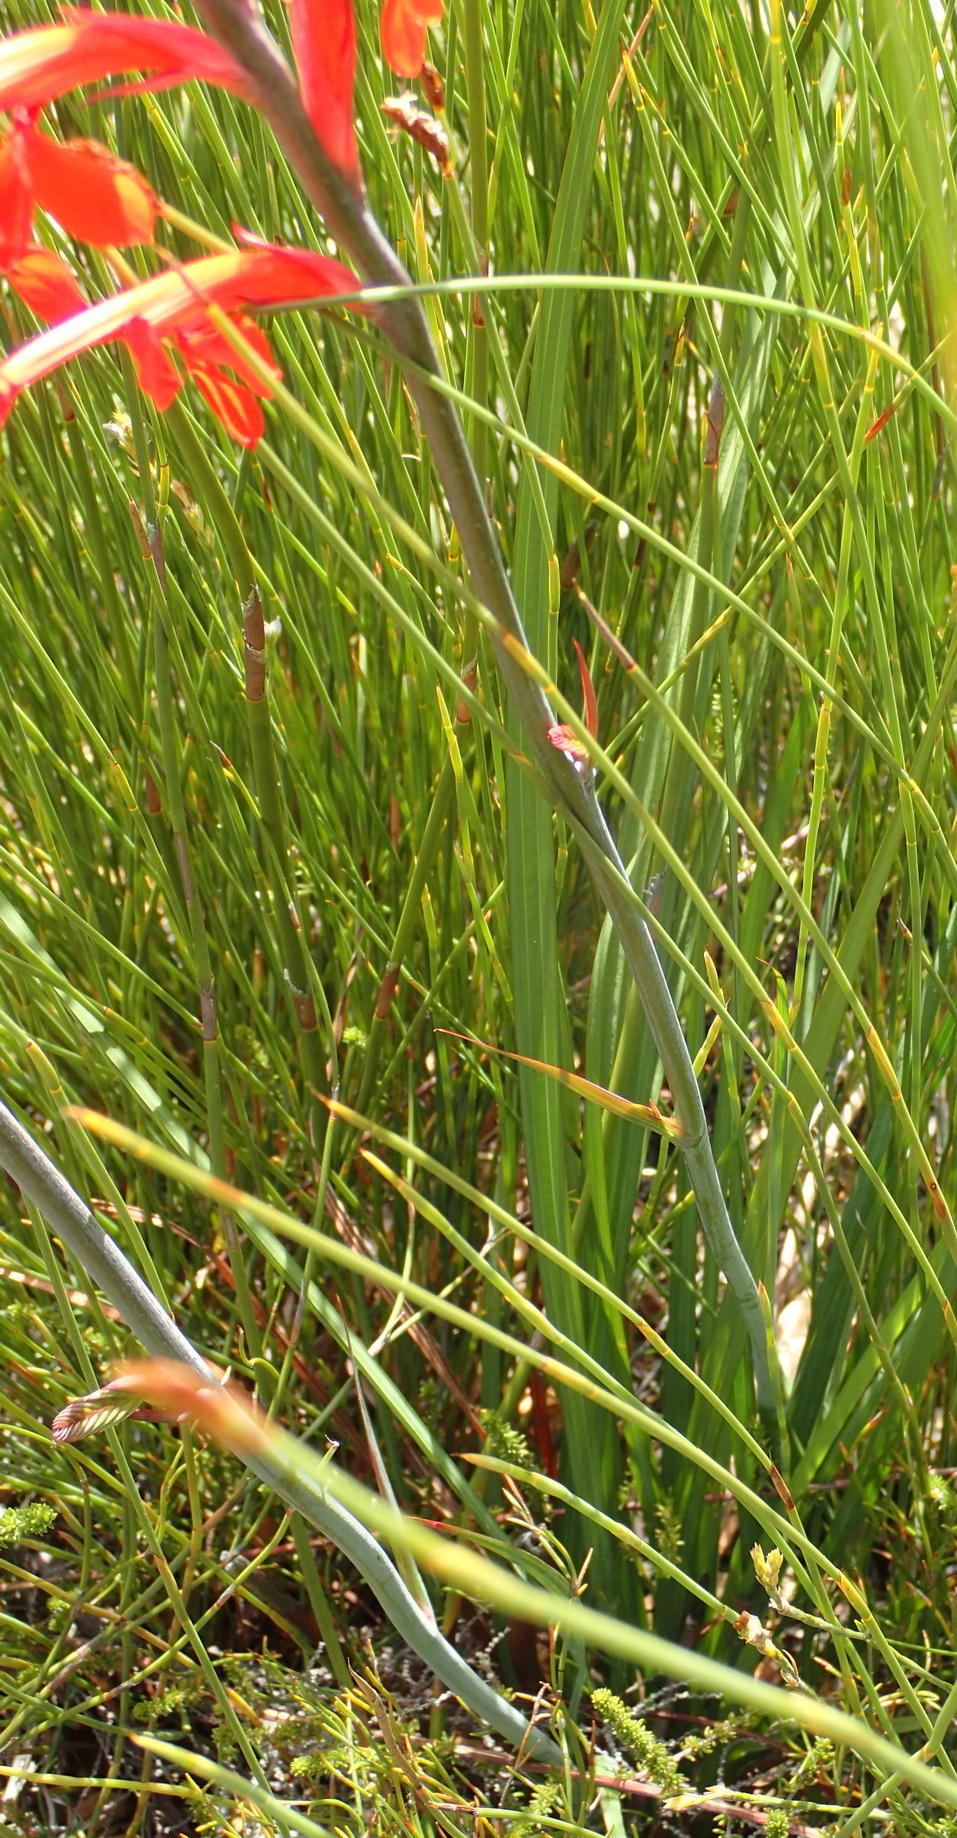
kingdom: Plantae
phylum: Tracheophyta
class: Liliopsida
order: Asparagales
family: Iridaceae
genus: Tritoniopsis
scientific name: Tritoniopsis caffra
